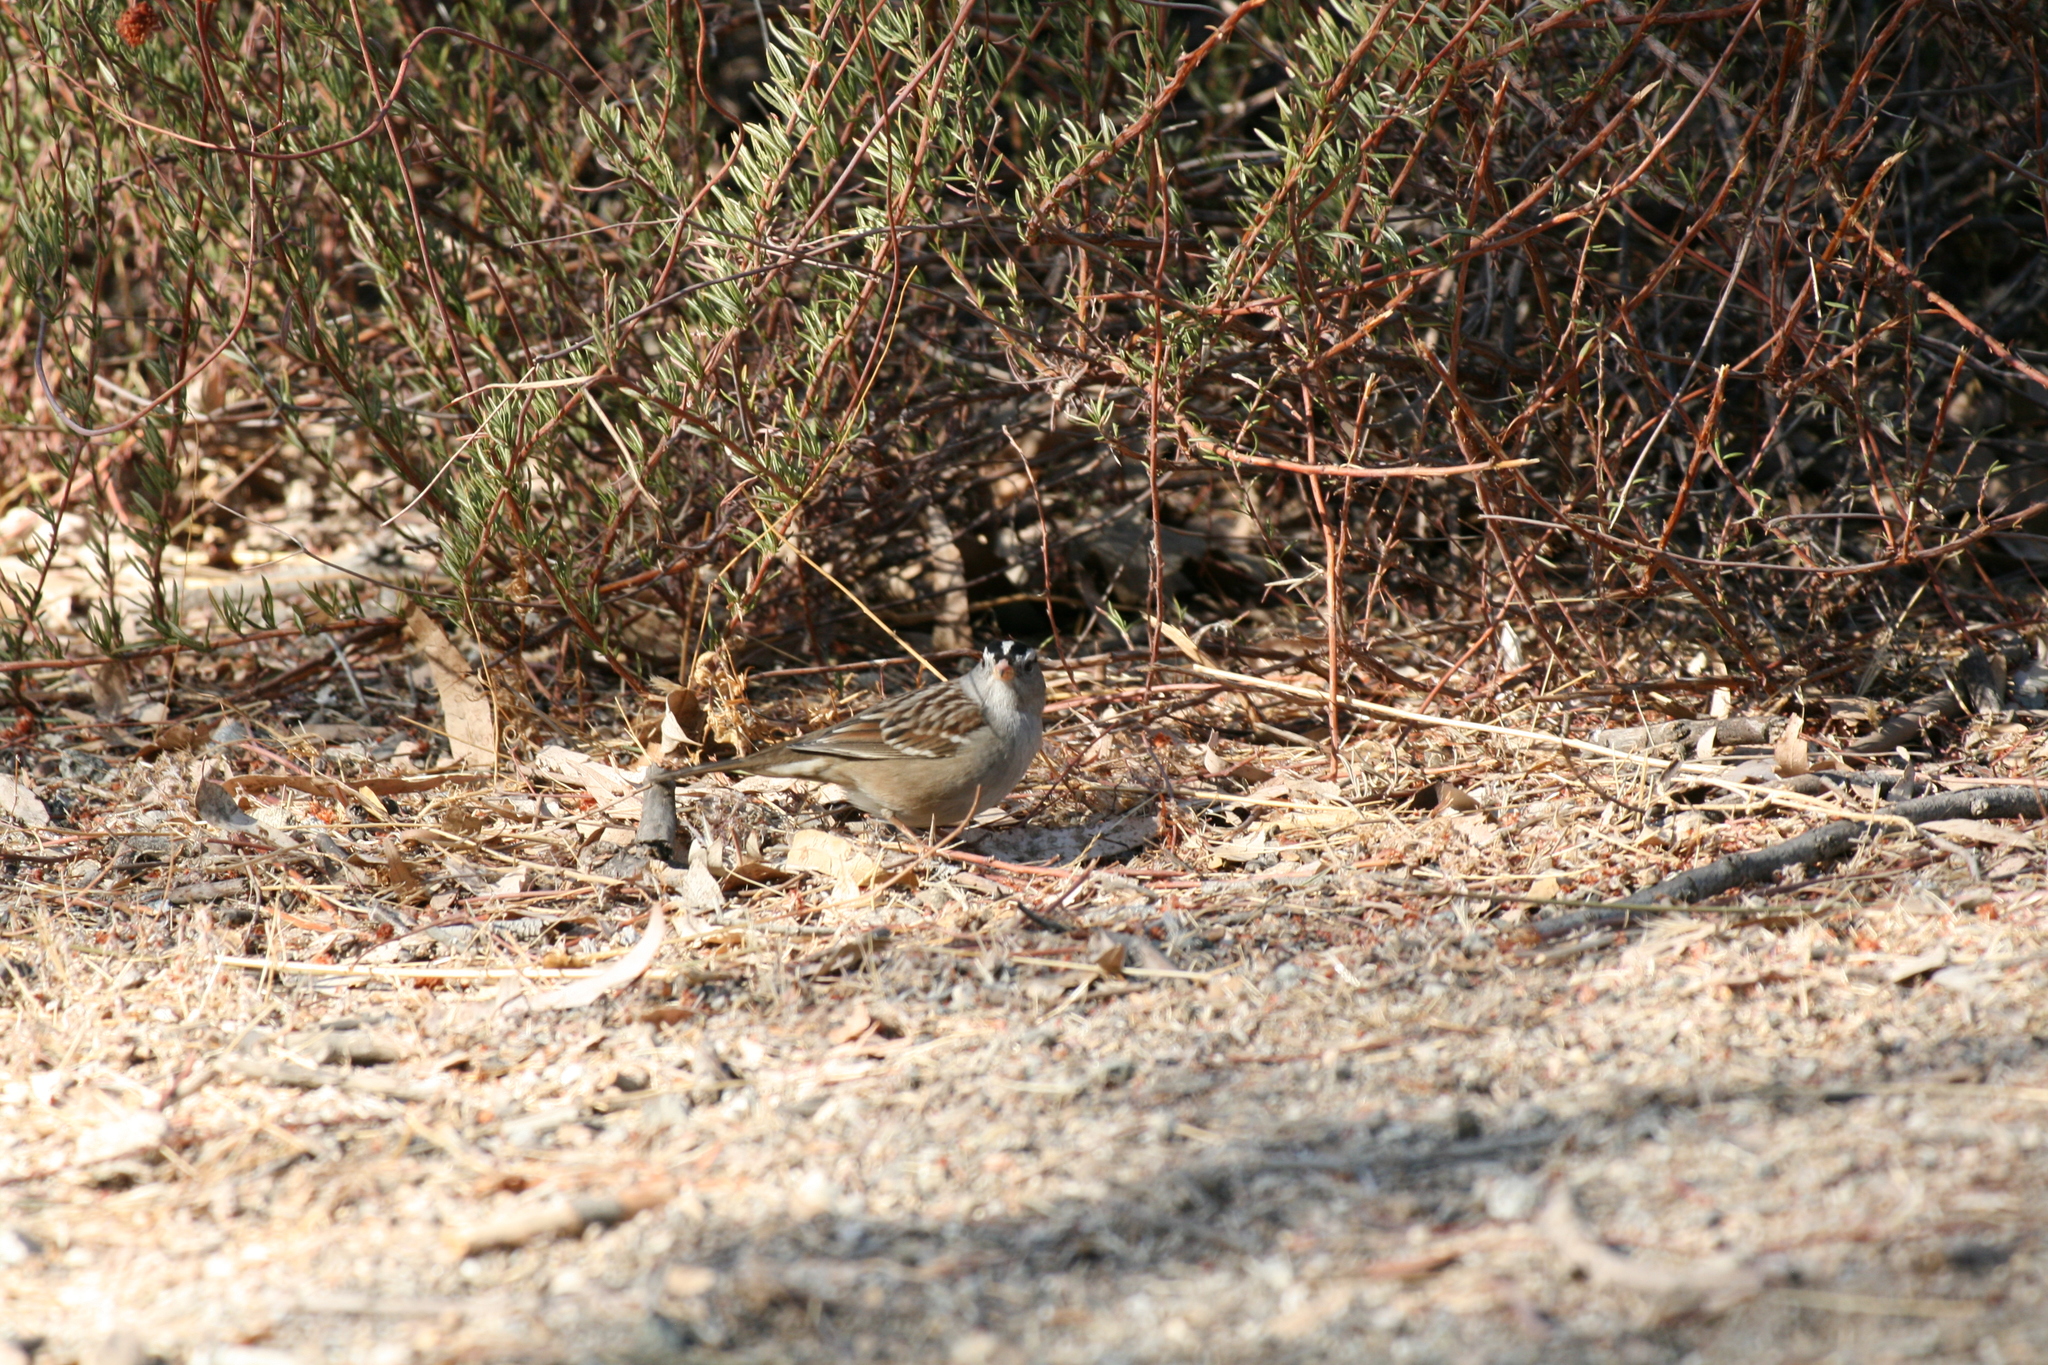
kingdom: Animalia
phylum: Chordata
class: Aves
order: Passeriformes
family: Passerellidae
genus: Zonotrichia
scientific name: Zonotrichia leucophrys
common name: White-crowned sparrow
